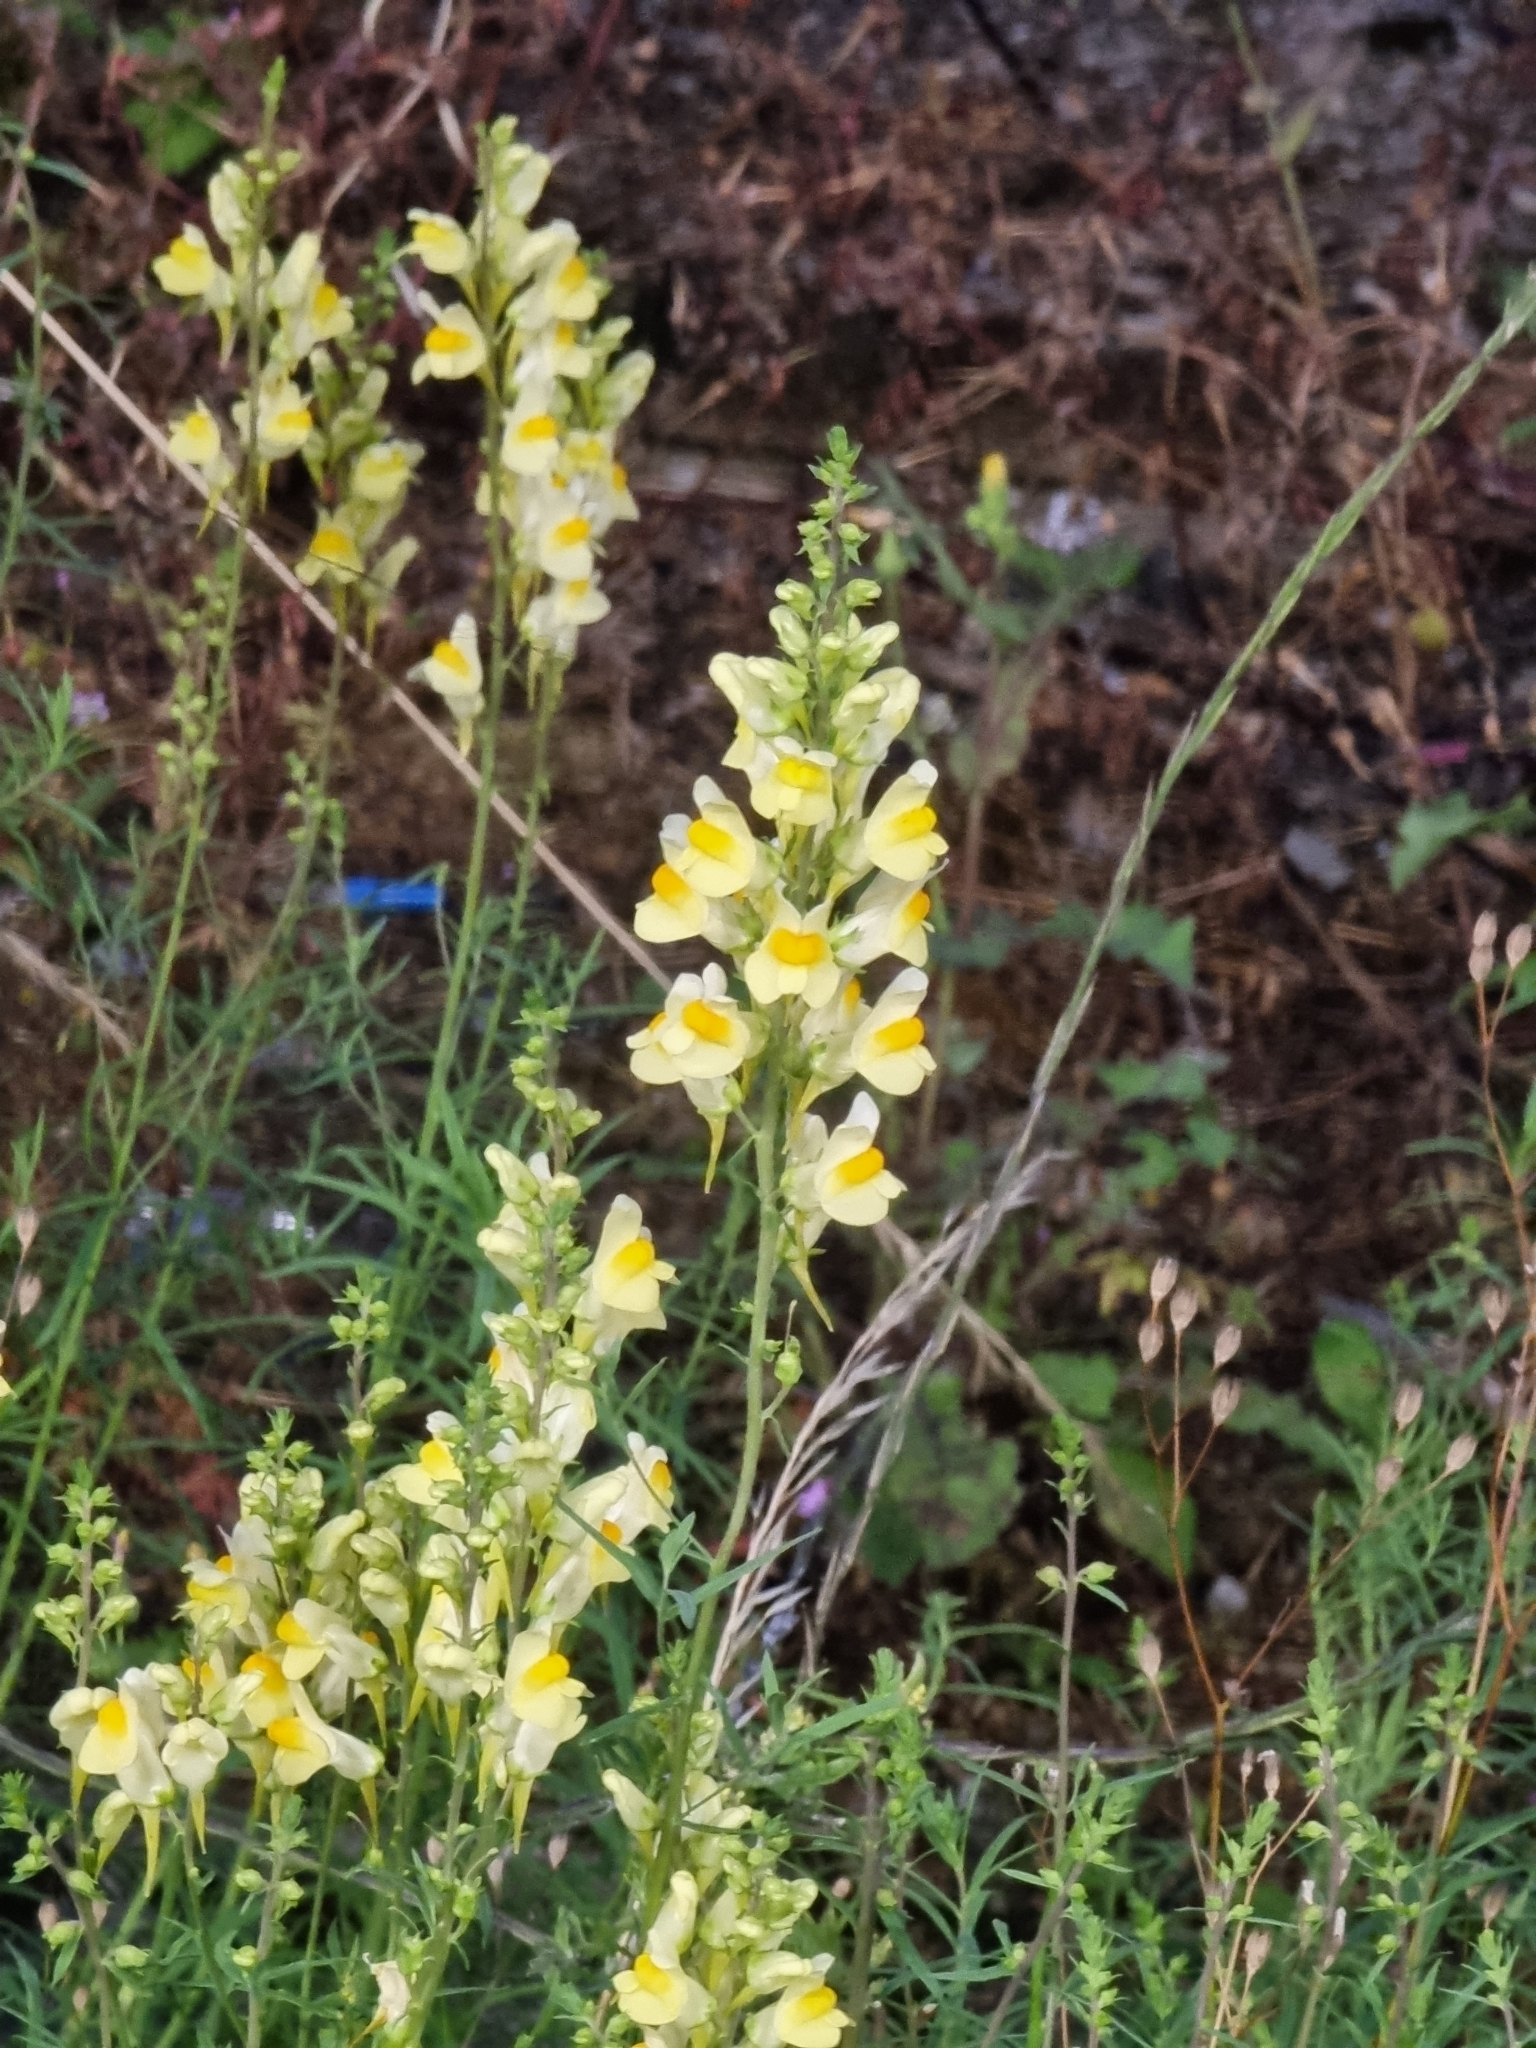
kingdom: Plantae
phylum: Tracheophyta
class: Magnoliopsida
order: Lamiales
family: Plantaginaceae
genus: Linaria
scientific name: Linaria vulgaris
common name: Butter and eggs
